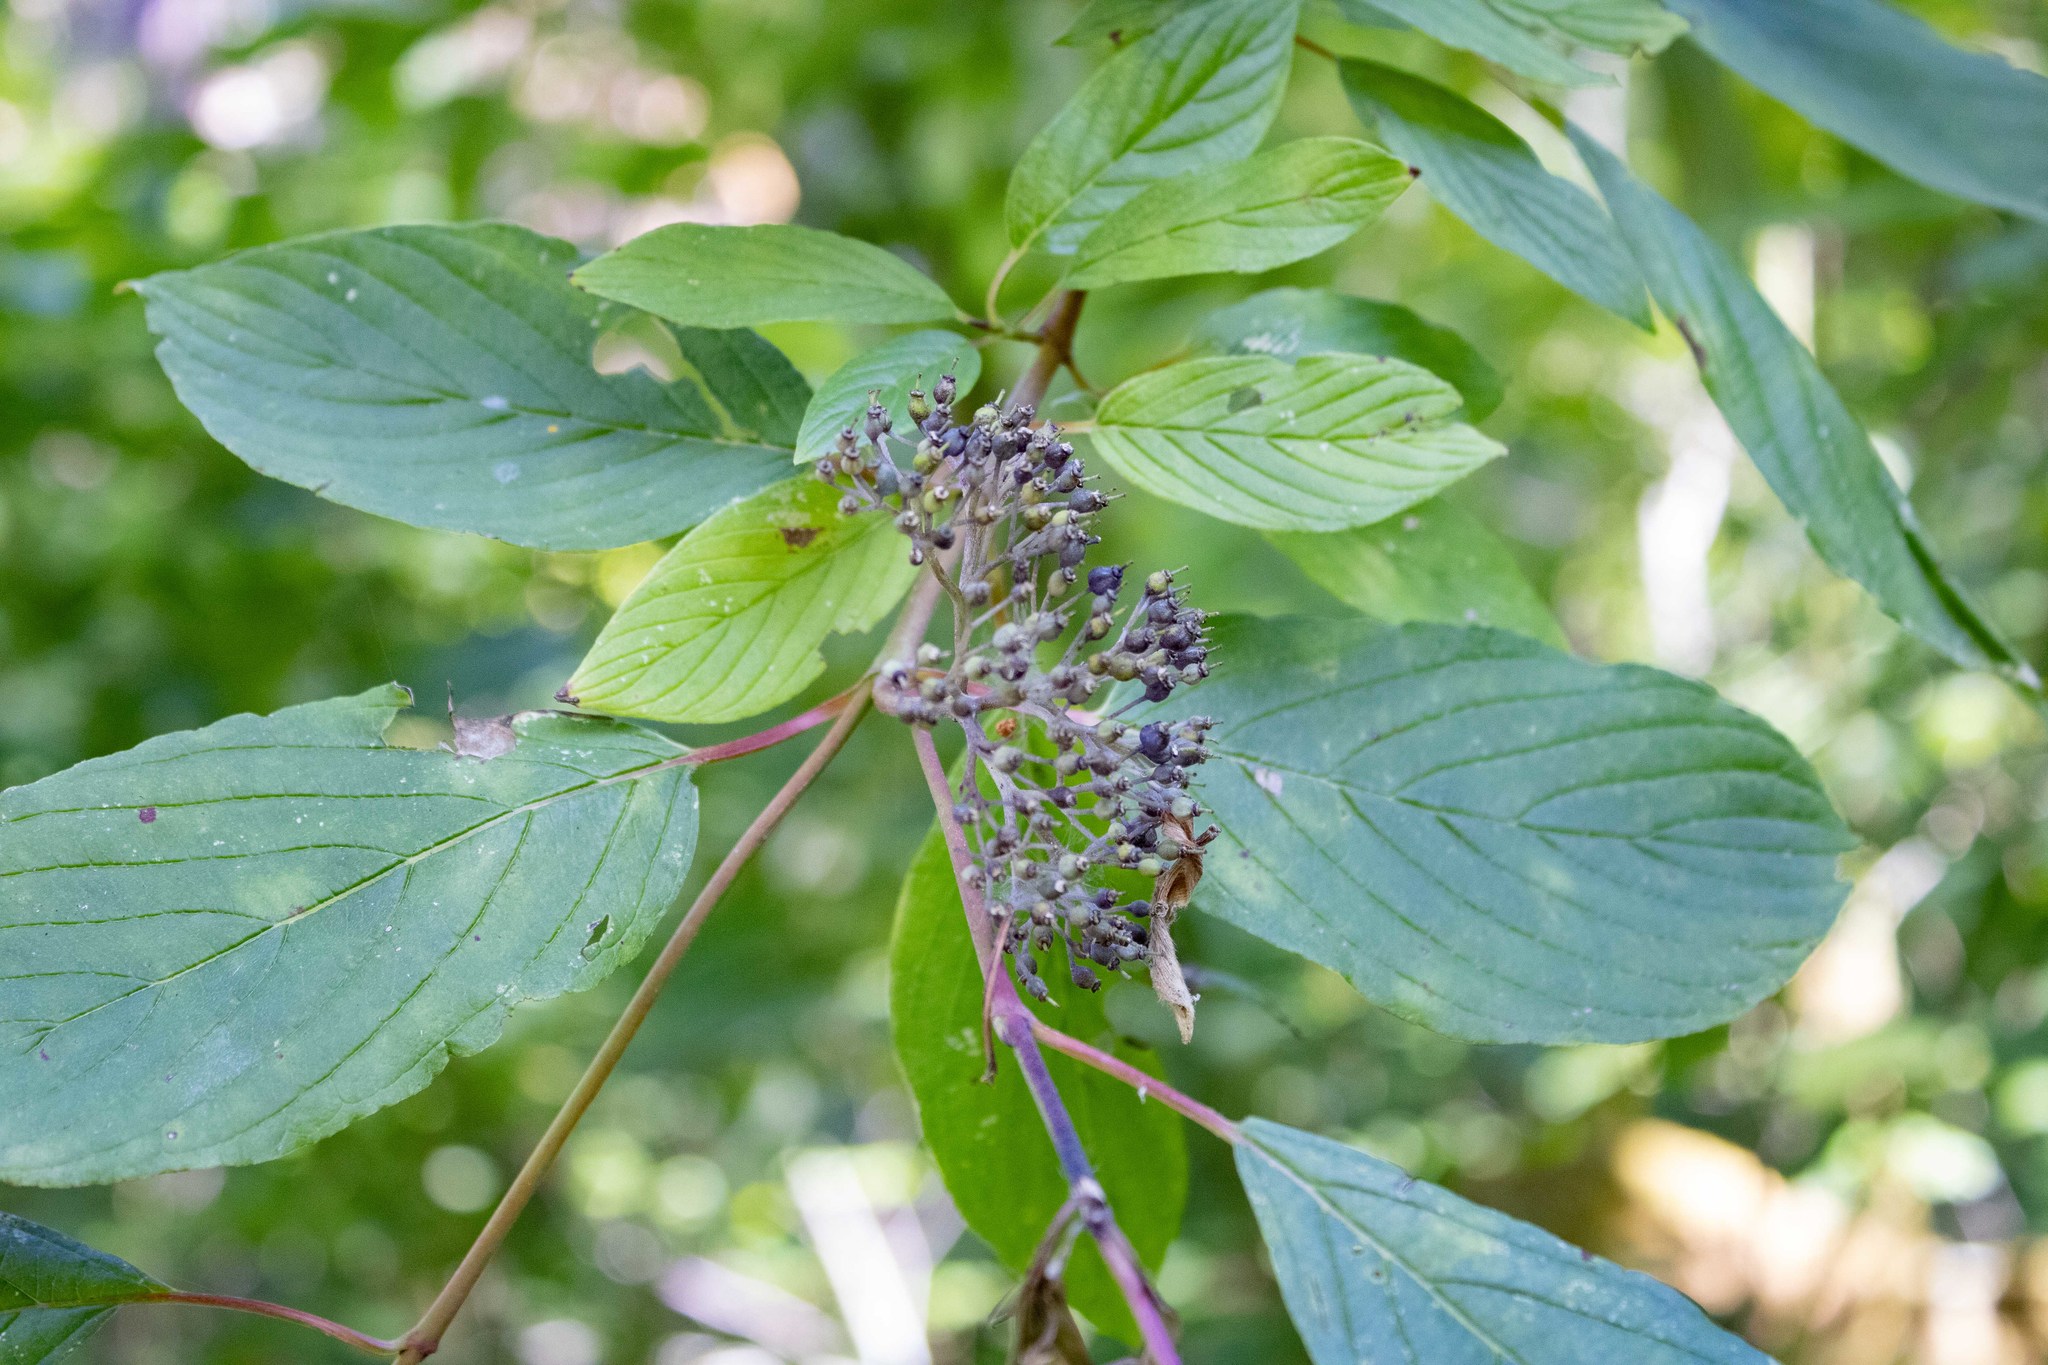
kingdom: Plantae
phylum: Tracheophyta
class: Magnoliopsida
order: Cornales
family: Cornaceae
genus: Cornus
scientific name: Cornus sericea
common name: Red-osier dogwood
